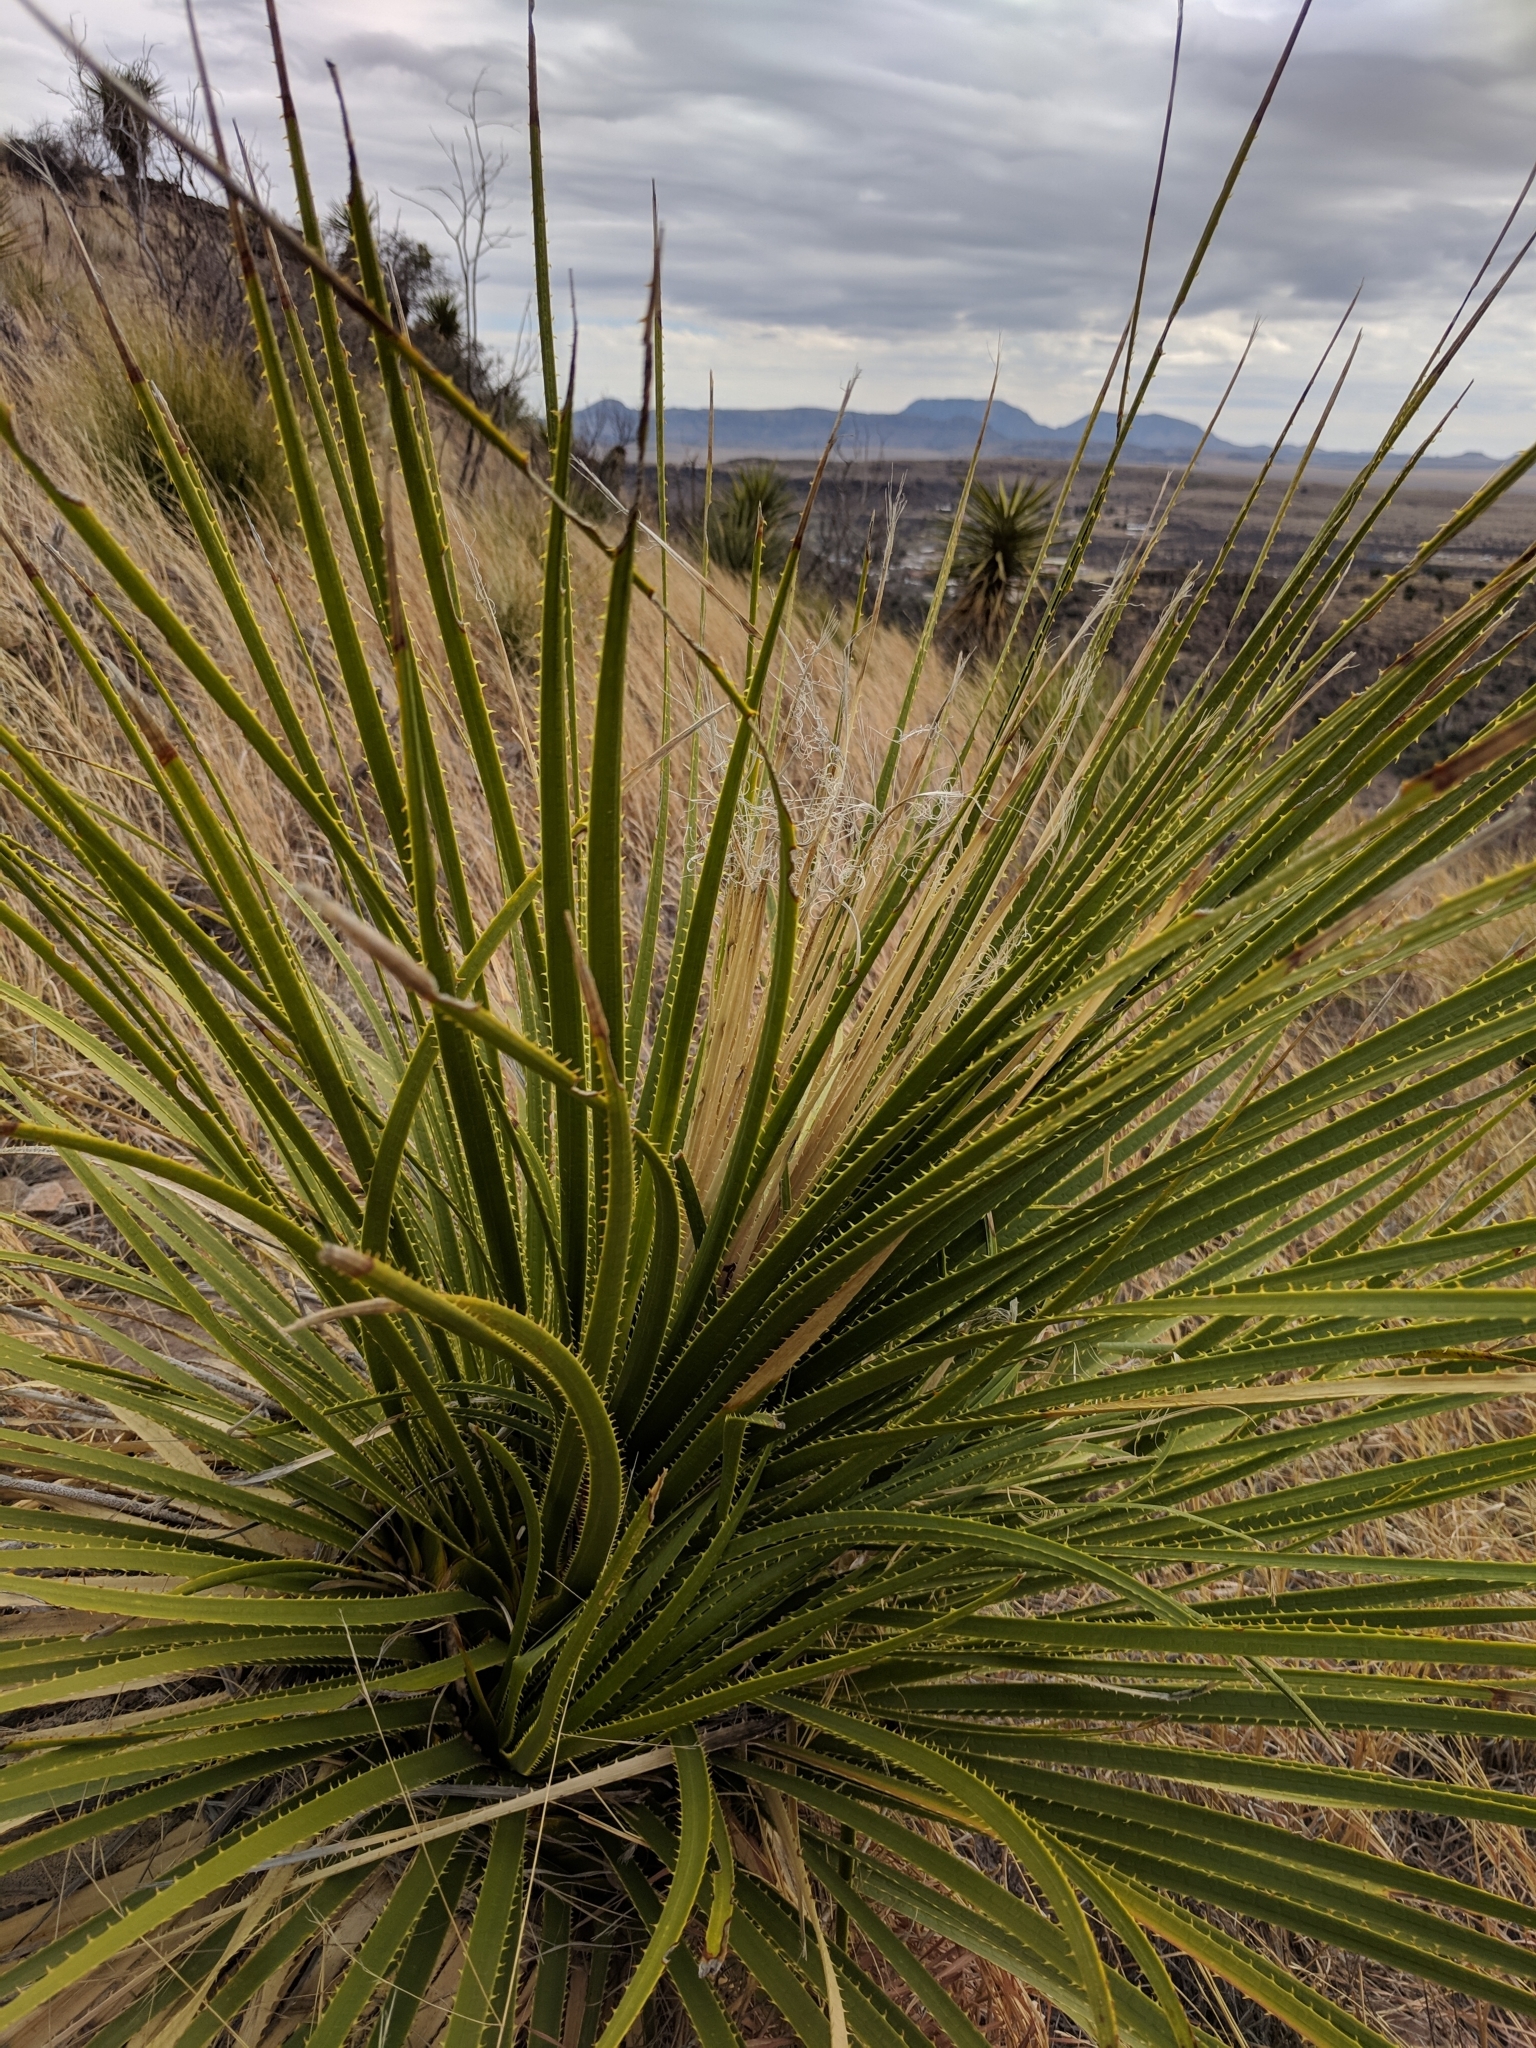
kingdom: Plantae
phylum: Tracheophyta
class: Liliopsida
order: Asparagales
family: Asparagaceae
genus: Dasylirion
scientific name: Dasylirion leiophyllum
